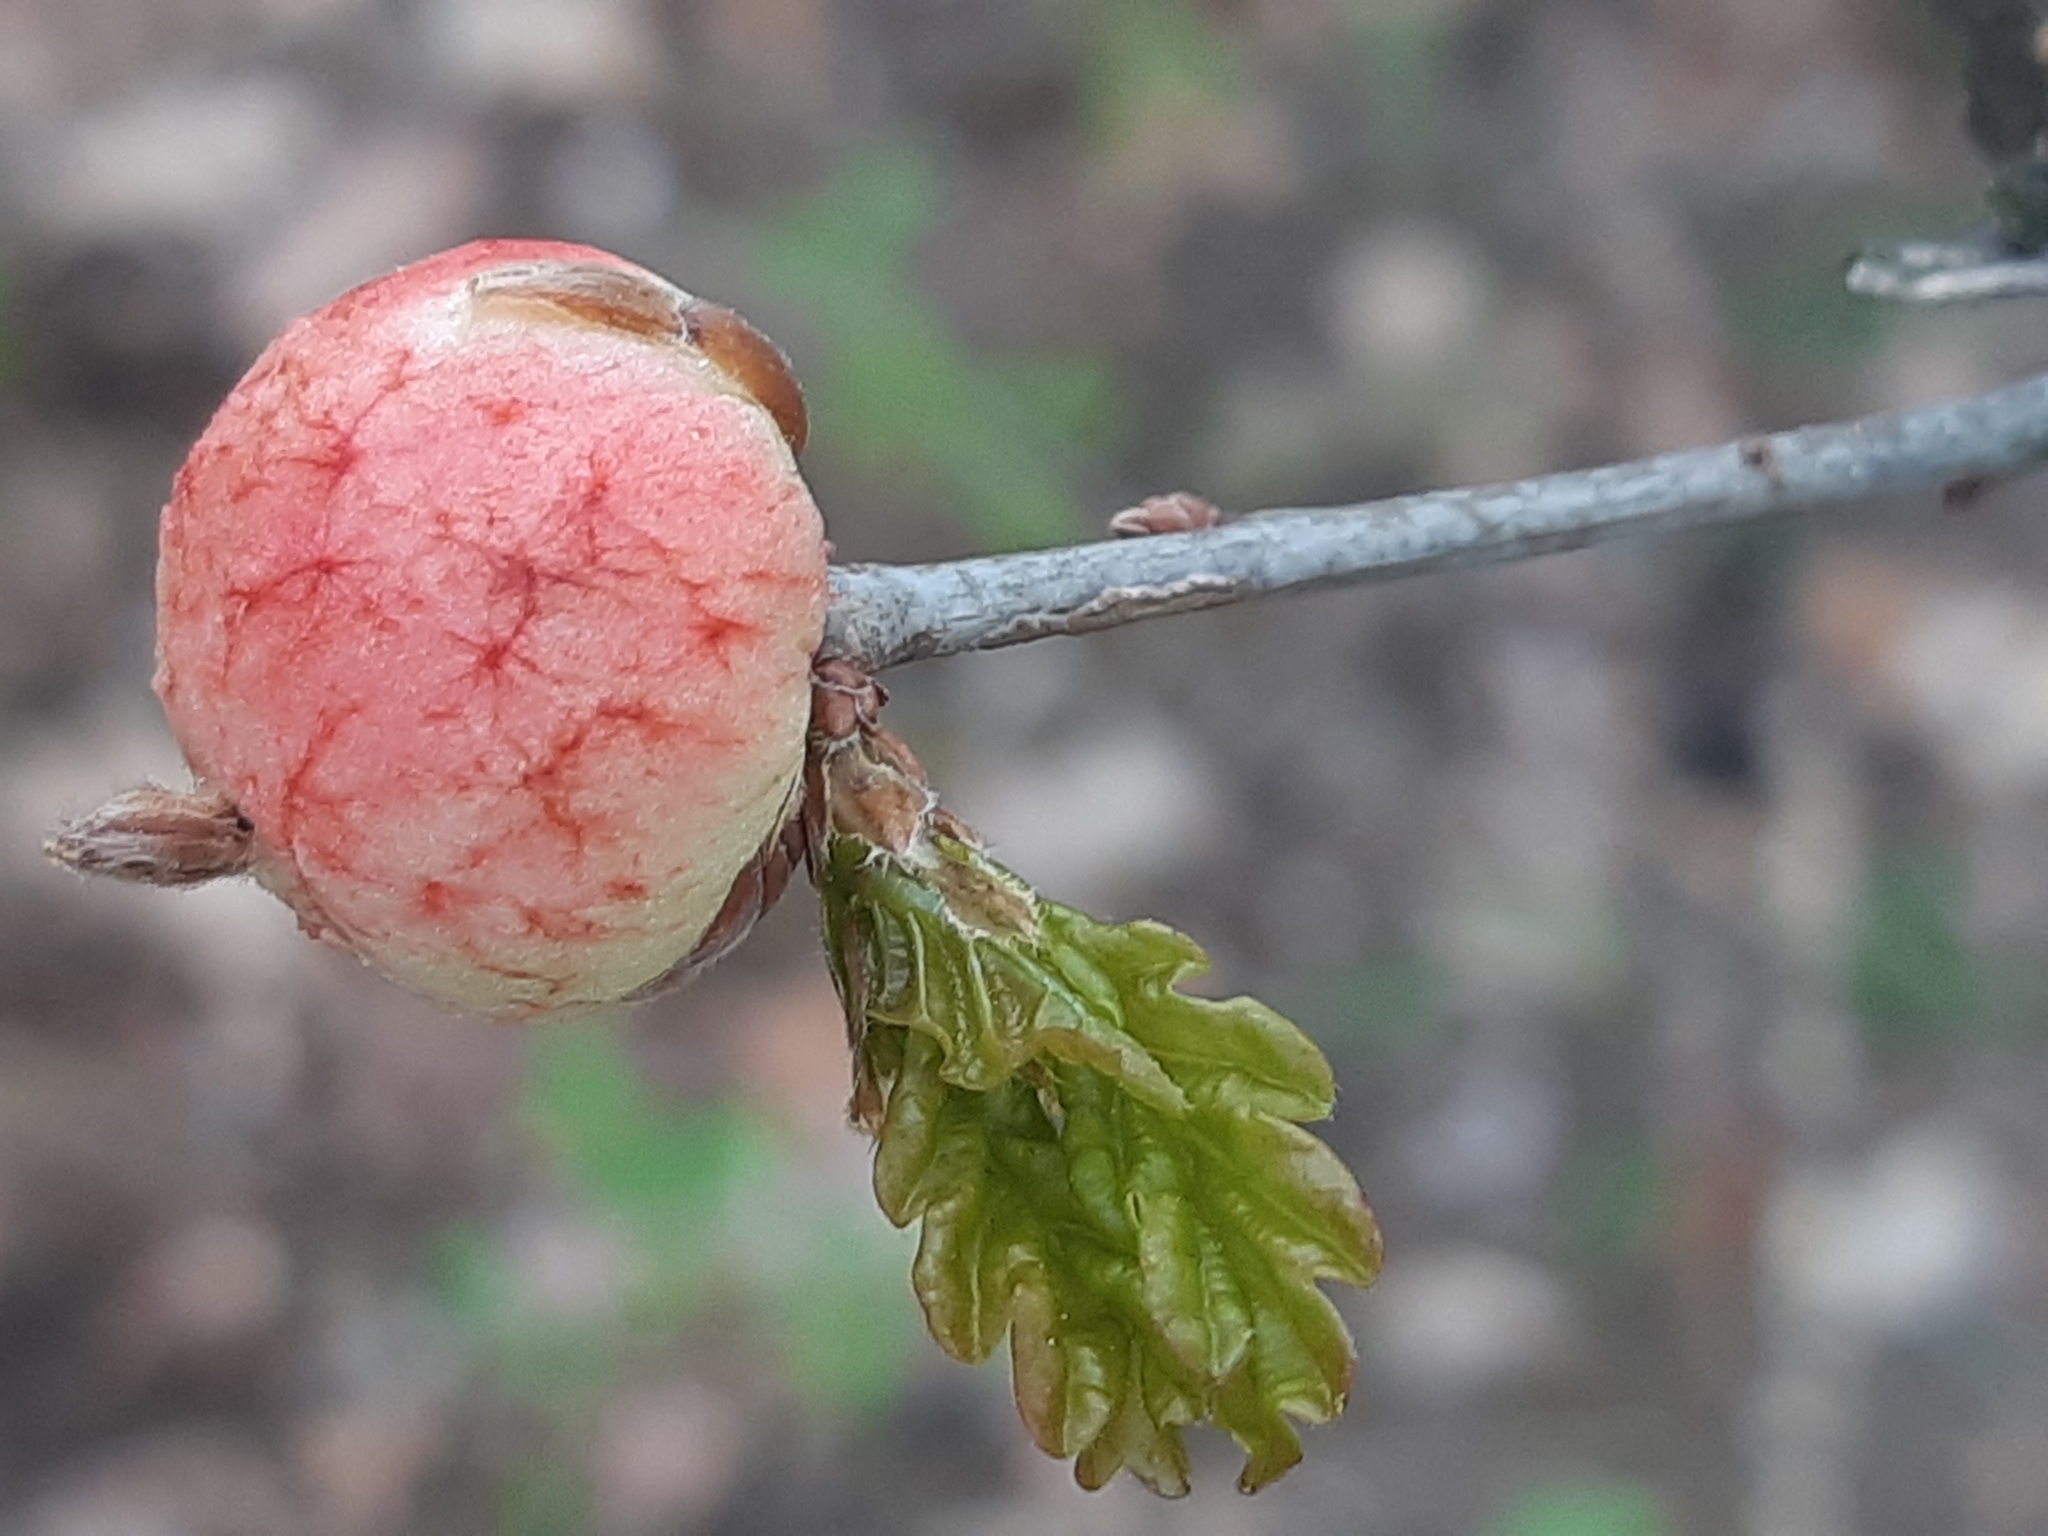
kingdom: Animalia
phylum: Arthropoda
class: Insecta
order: Hymenoptera
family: Cynipidae
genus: Biorhiza
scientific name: Biorhiza pallida
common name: Oak apple
